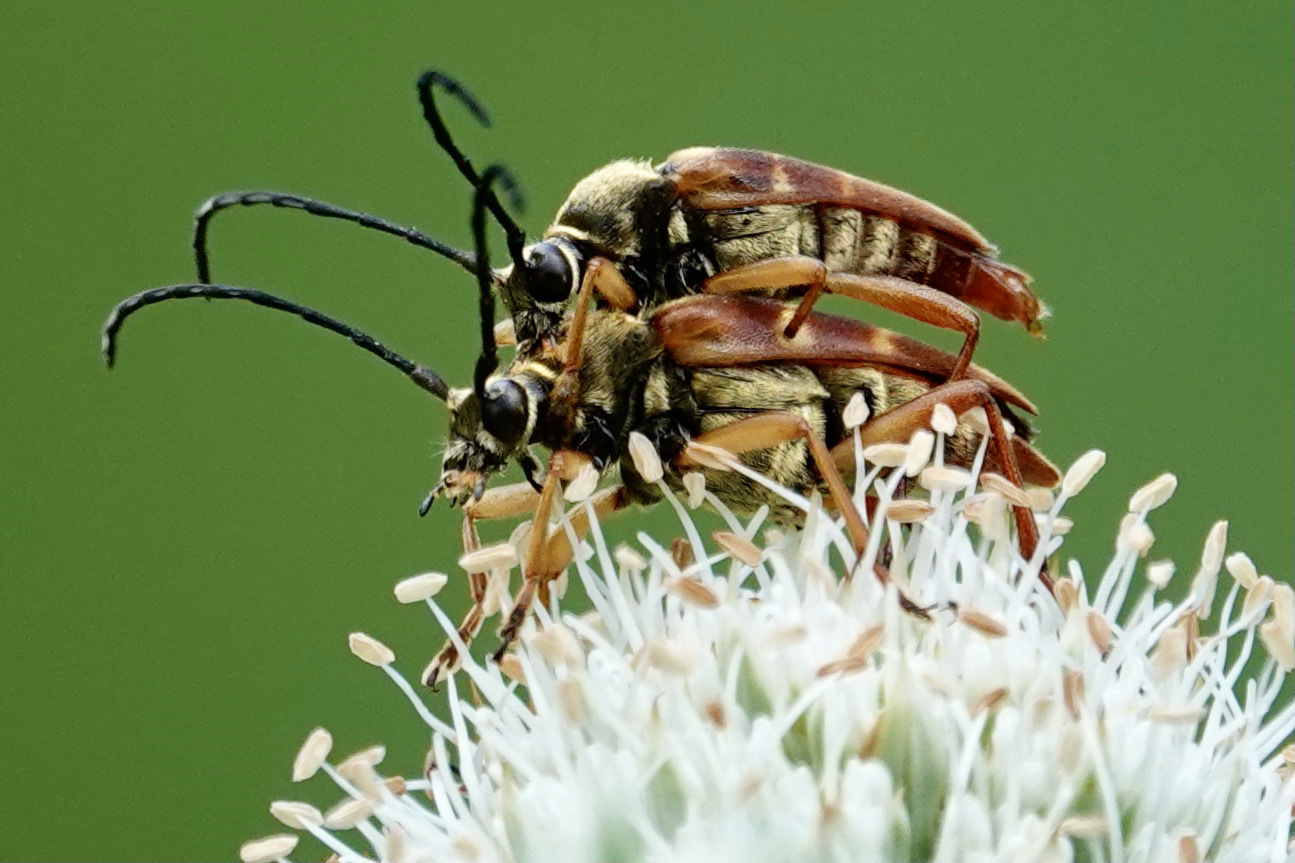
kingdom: Animalia
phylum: Arthropoda
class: Insecta
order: Coleoptera
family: Cerambycidae
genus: Typocerus
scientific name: Typocerus velutinus
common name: Banded longhorn beetle
